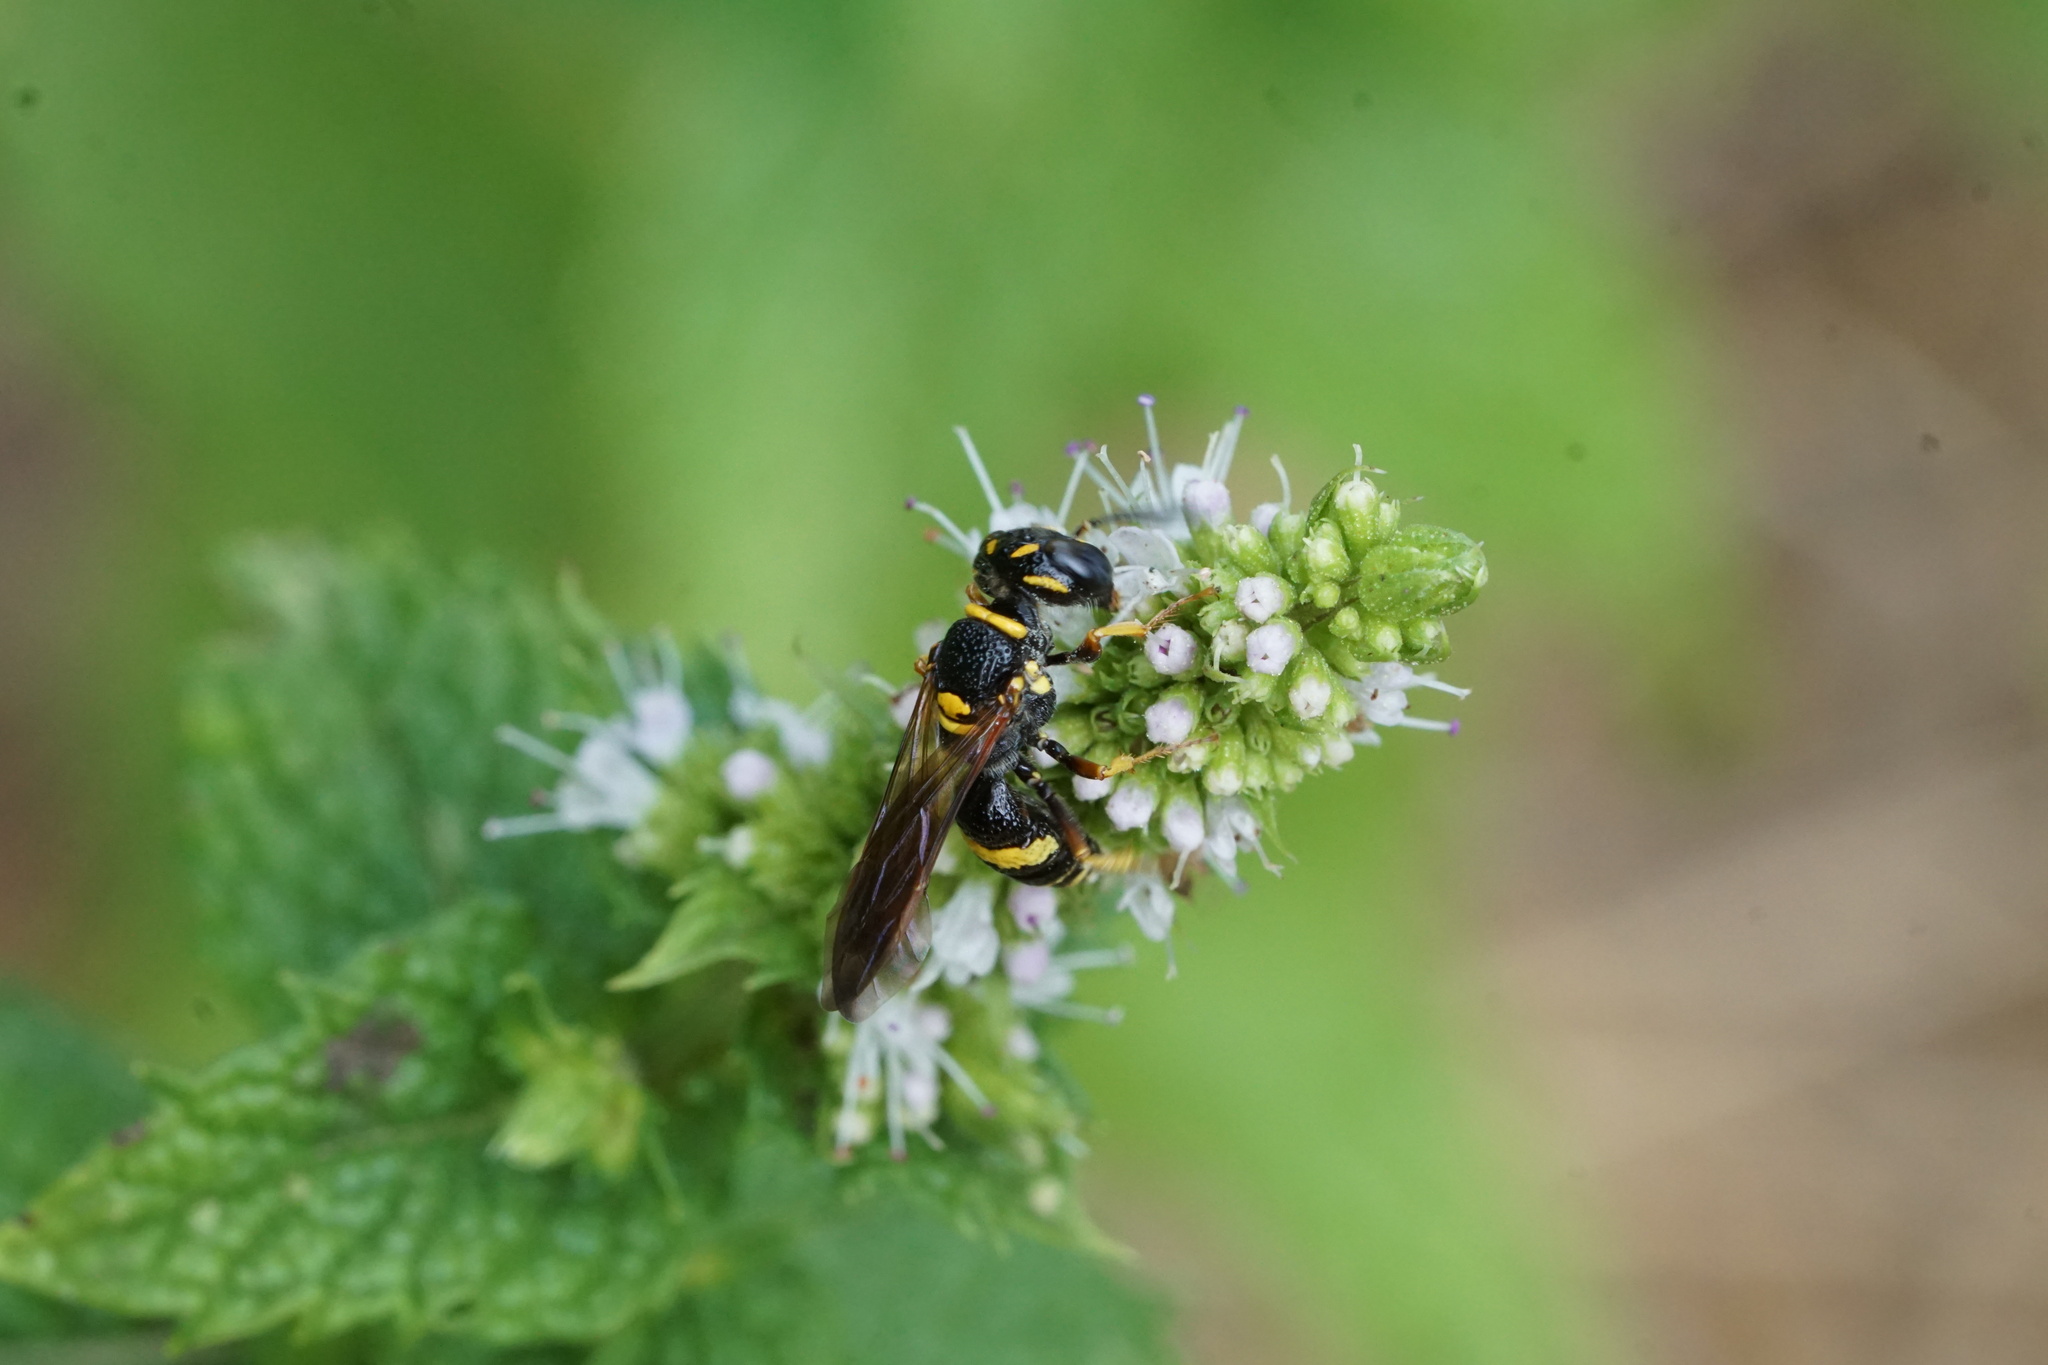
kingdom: Animalia
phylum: Arthropoda
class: Insecta
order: Hymenoptera
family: Crabronidae
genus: Philanthus
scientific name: Philanthus gibbosus
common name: Humped beewolf
